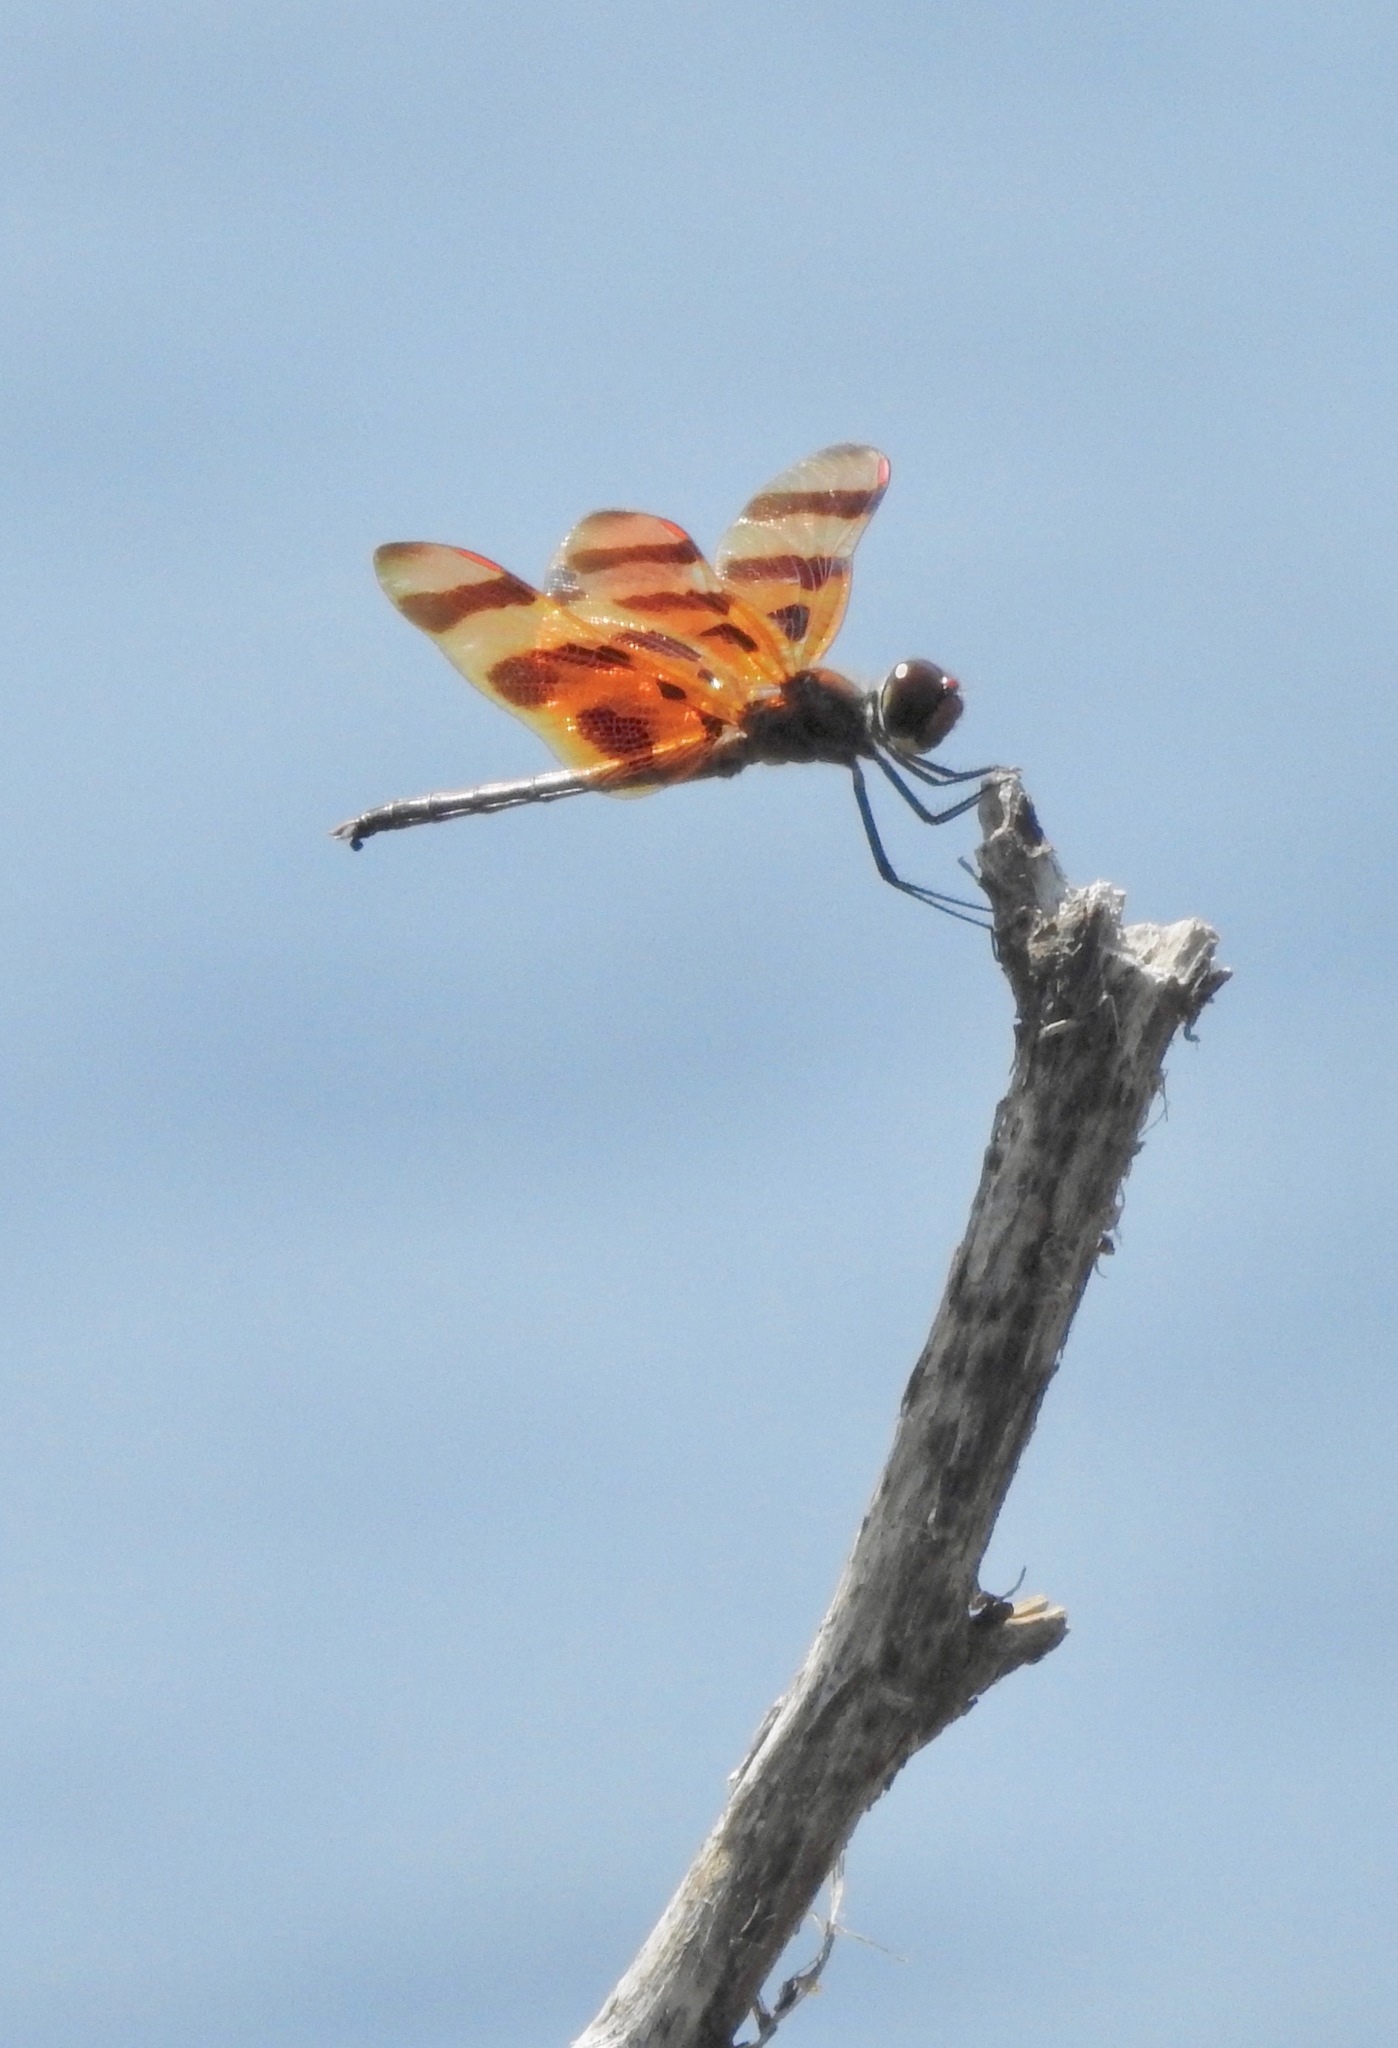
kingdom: Animalia
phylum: Arthropoda
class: Insecta
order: Odonata
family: Libellulidae
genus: Celithemis
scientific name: Celithemis eponina
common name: Halloween pennant
